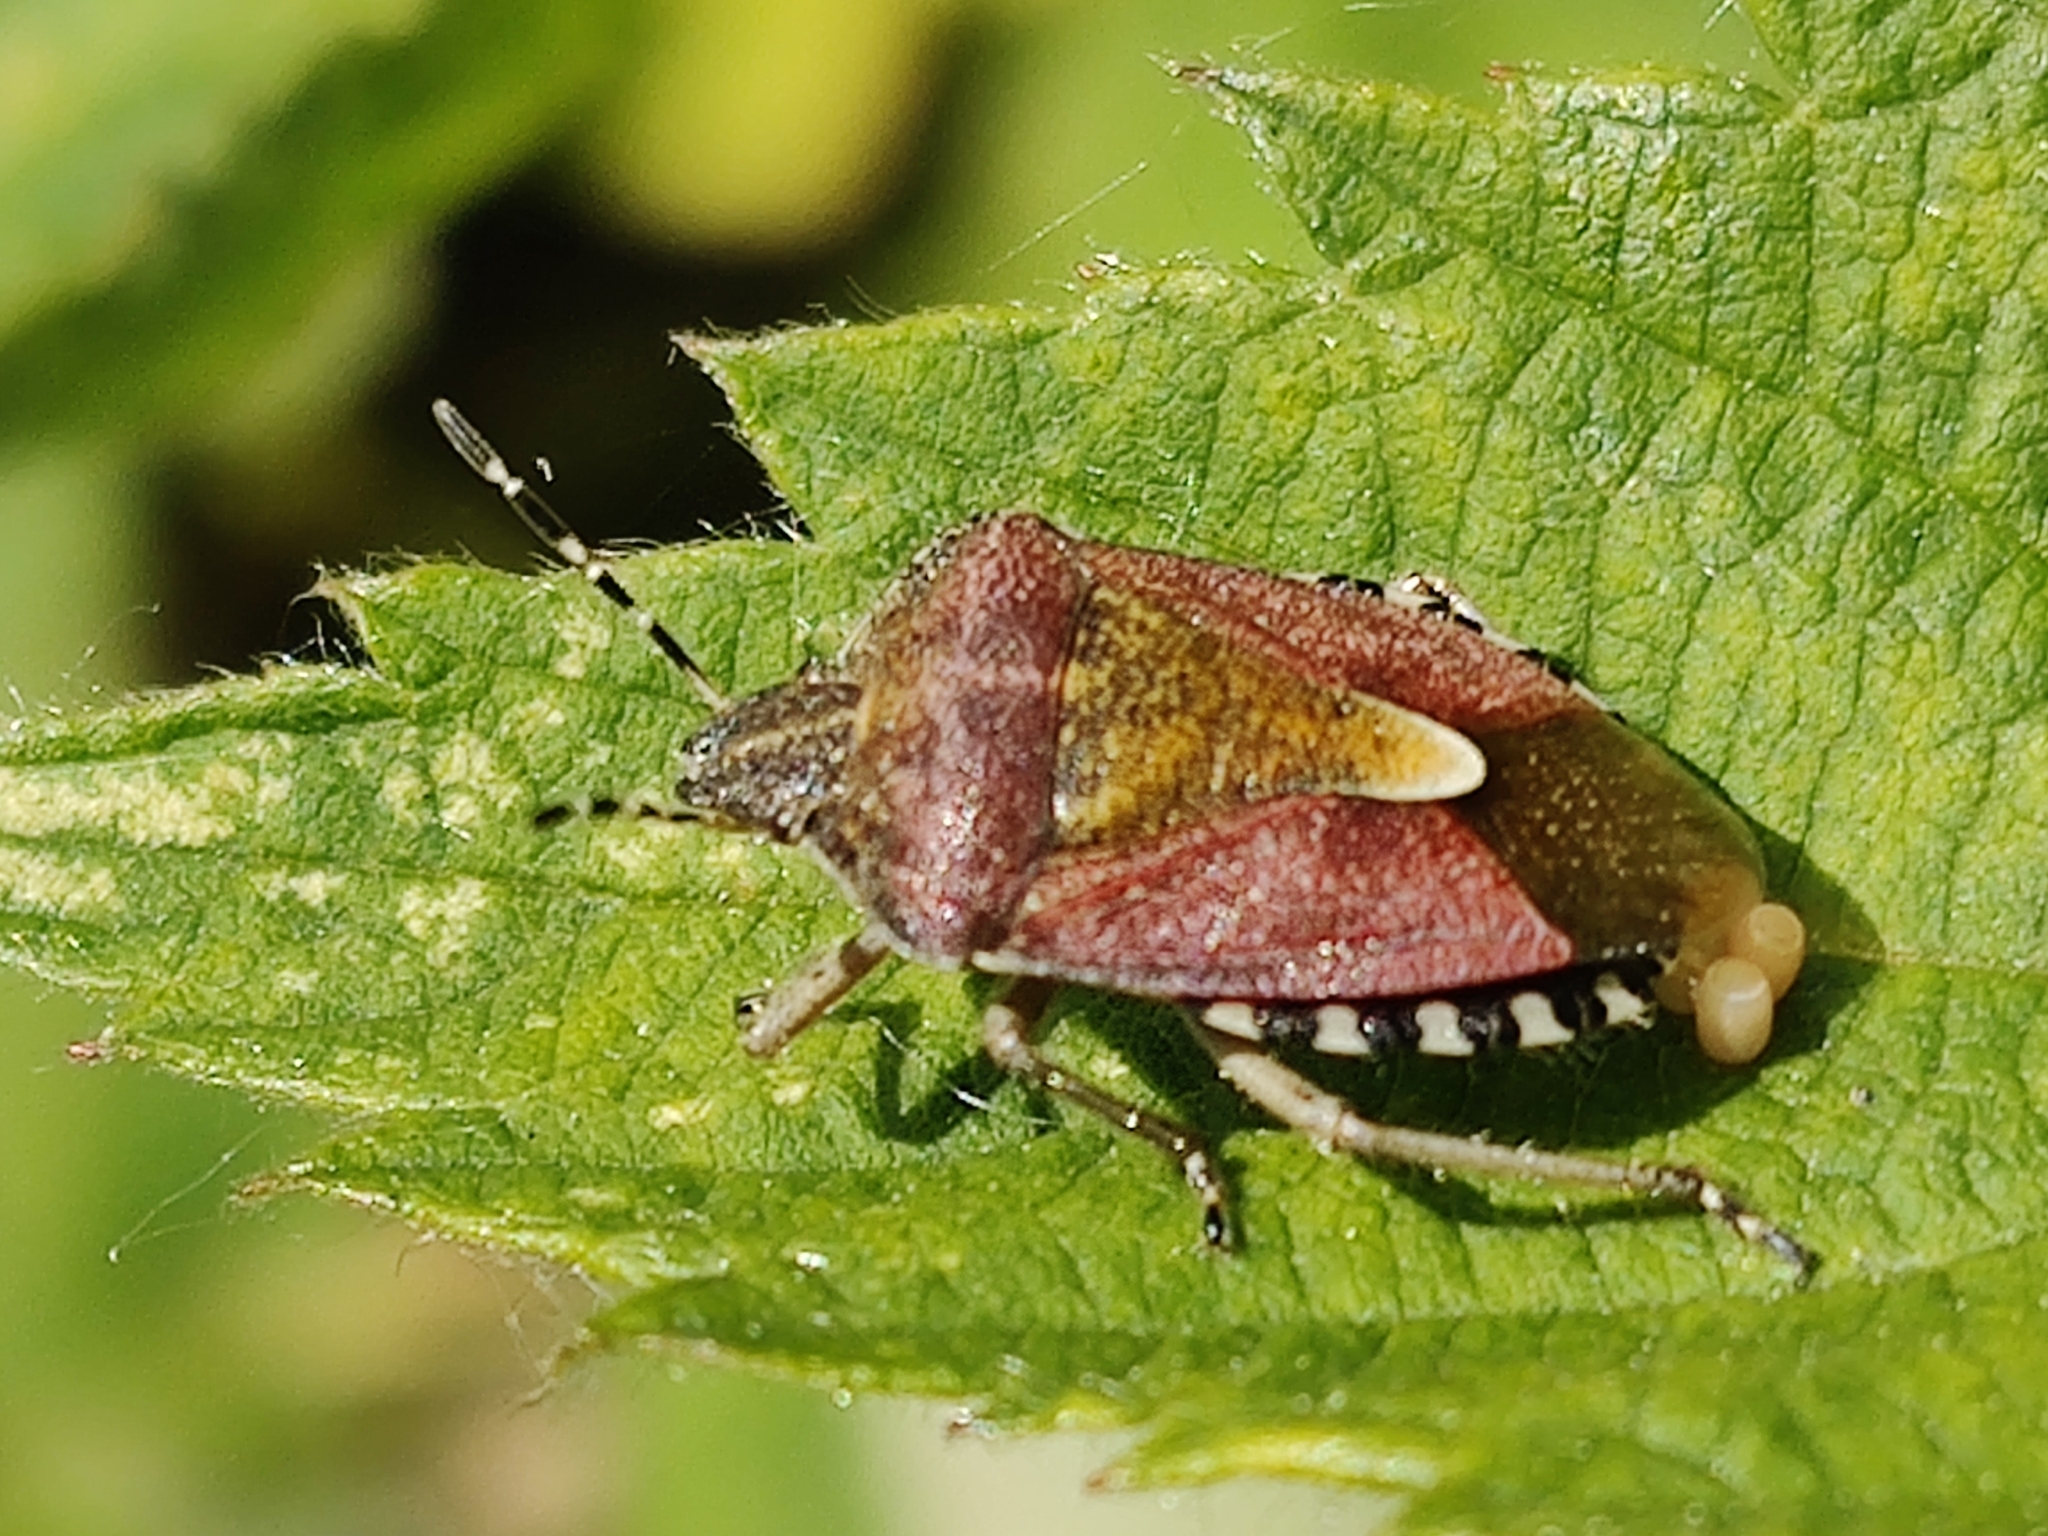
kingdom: Animalia
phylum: Arthropoda
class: Insecta
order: Hemiptera
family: Pentatomidae
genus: Dolycoris
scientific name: Dolycoris baccarum
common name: Sloe bug
